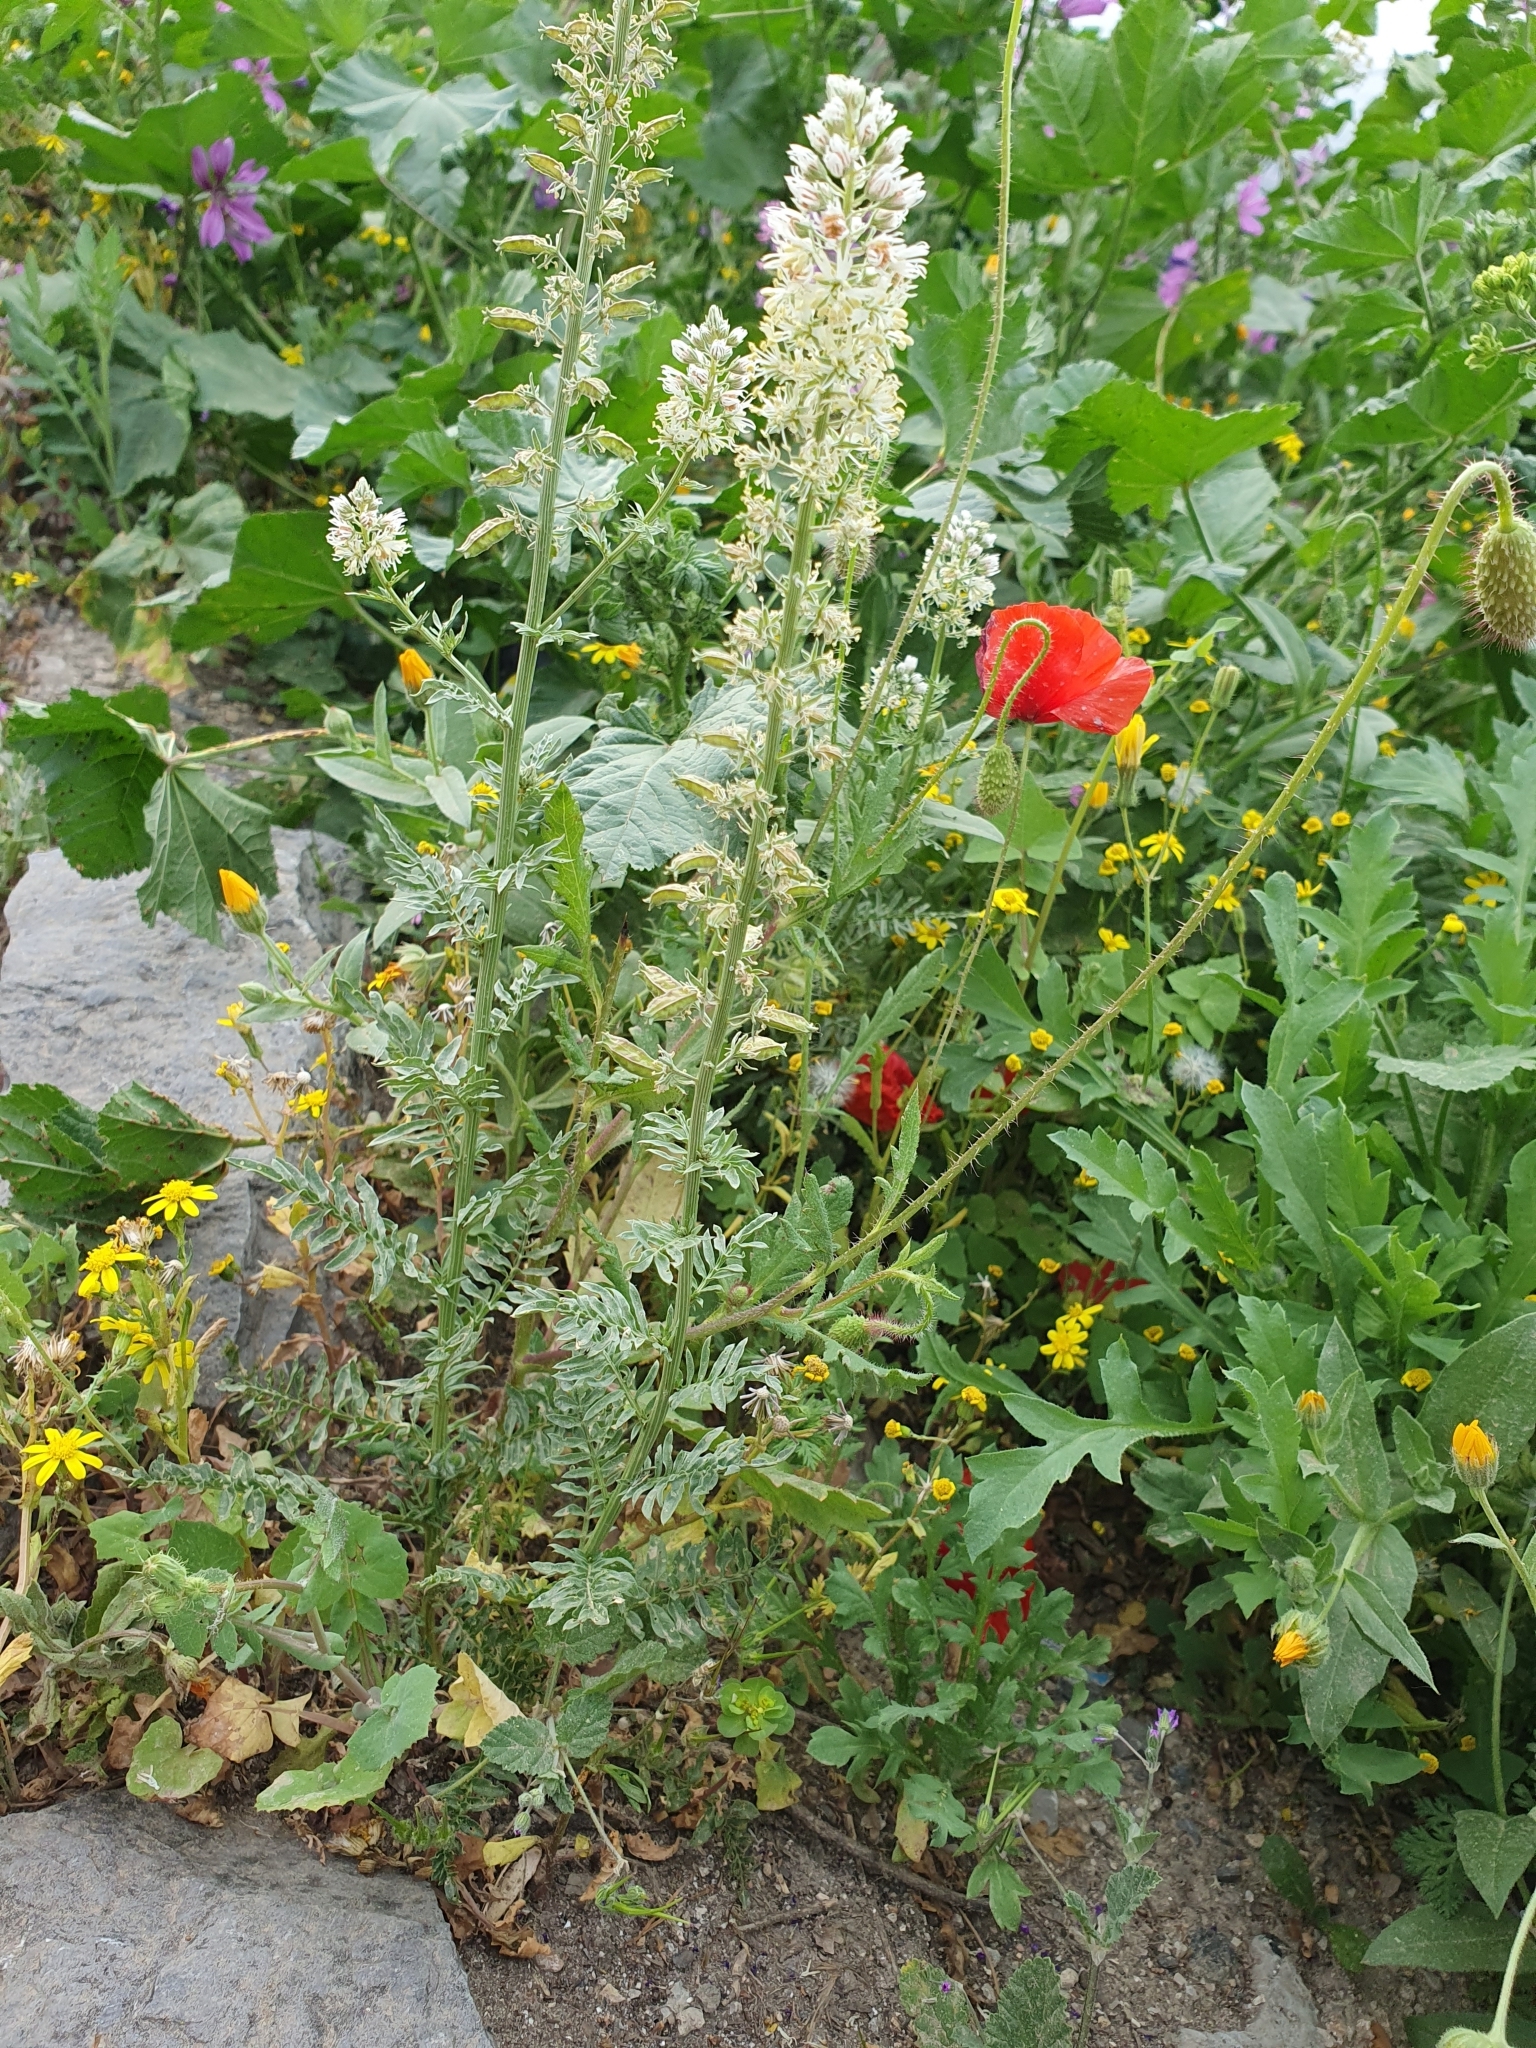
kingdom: Plantae
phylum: Tracheophyta
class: Magnoliopsida
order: Brassicales
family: Resedaceae
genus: Reseda
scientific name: Reseda alba
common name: White mignonette
